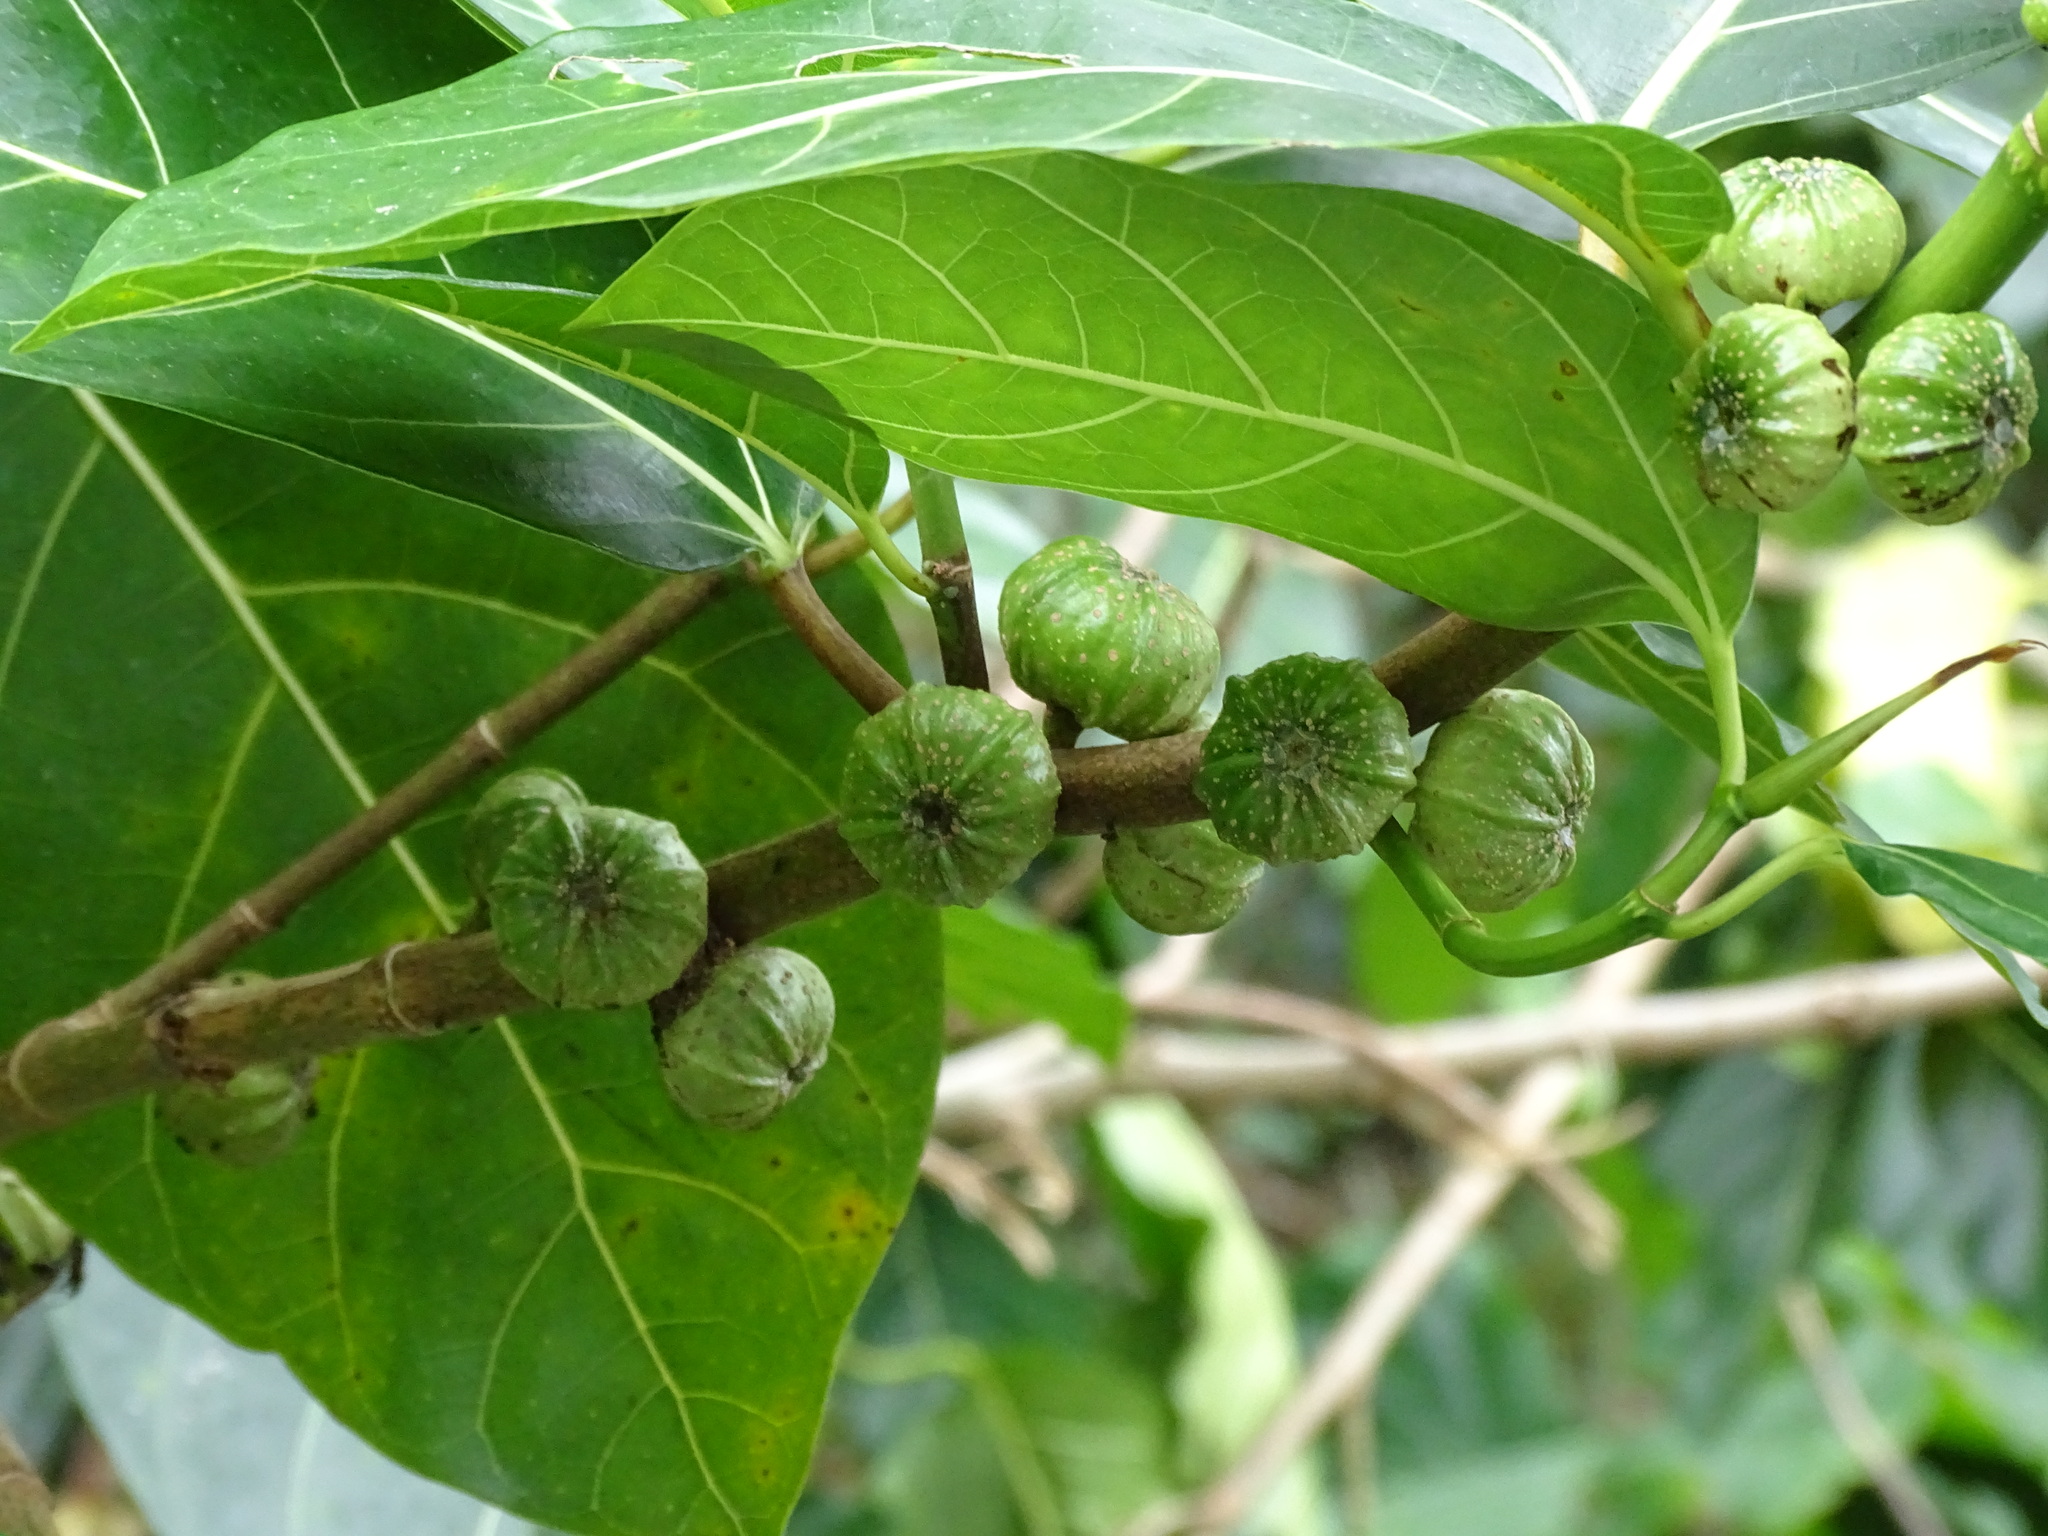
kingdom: Plantae
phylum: Tracheophyta
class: Magnoliopsida
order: Rosales
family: Moraceae
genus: Ficus
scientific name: Ficus septica
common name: Septic fig
